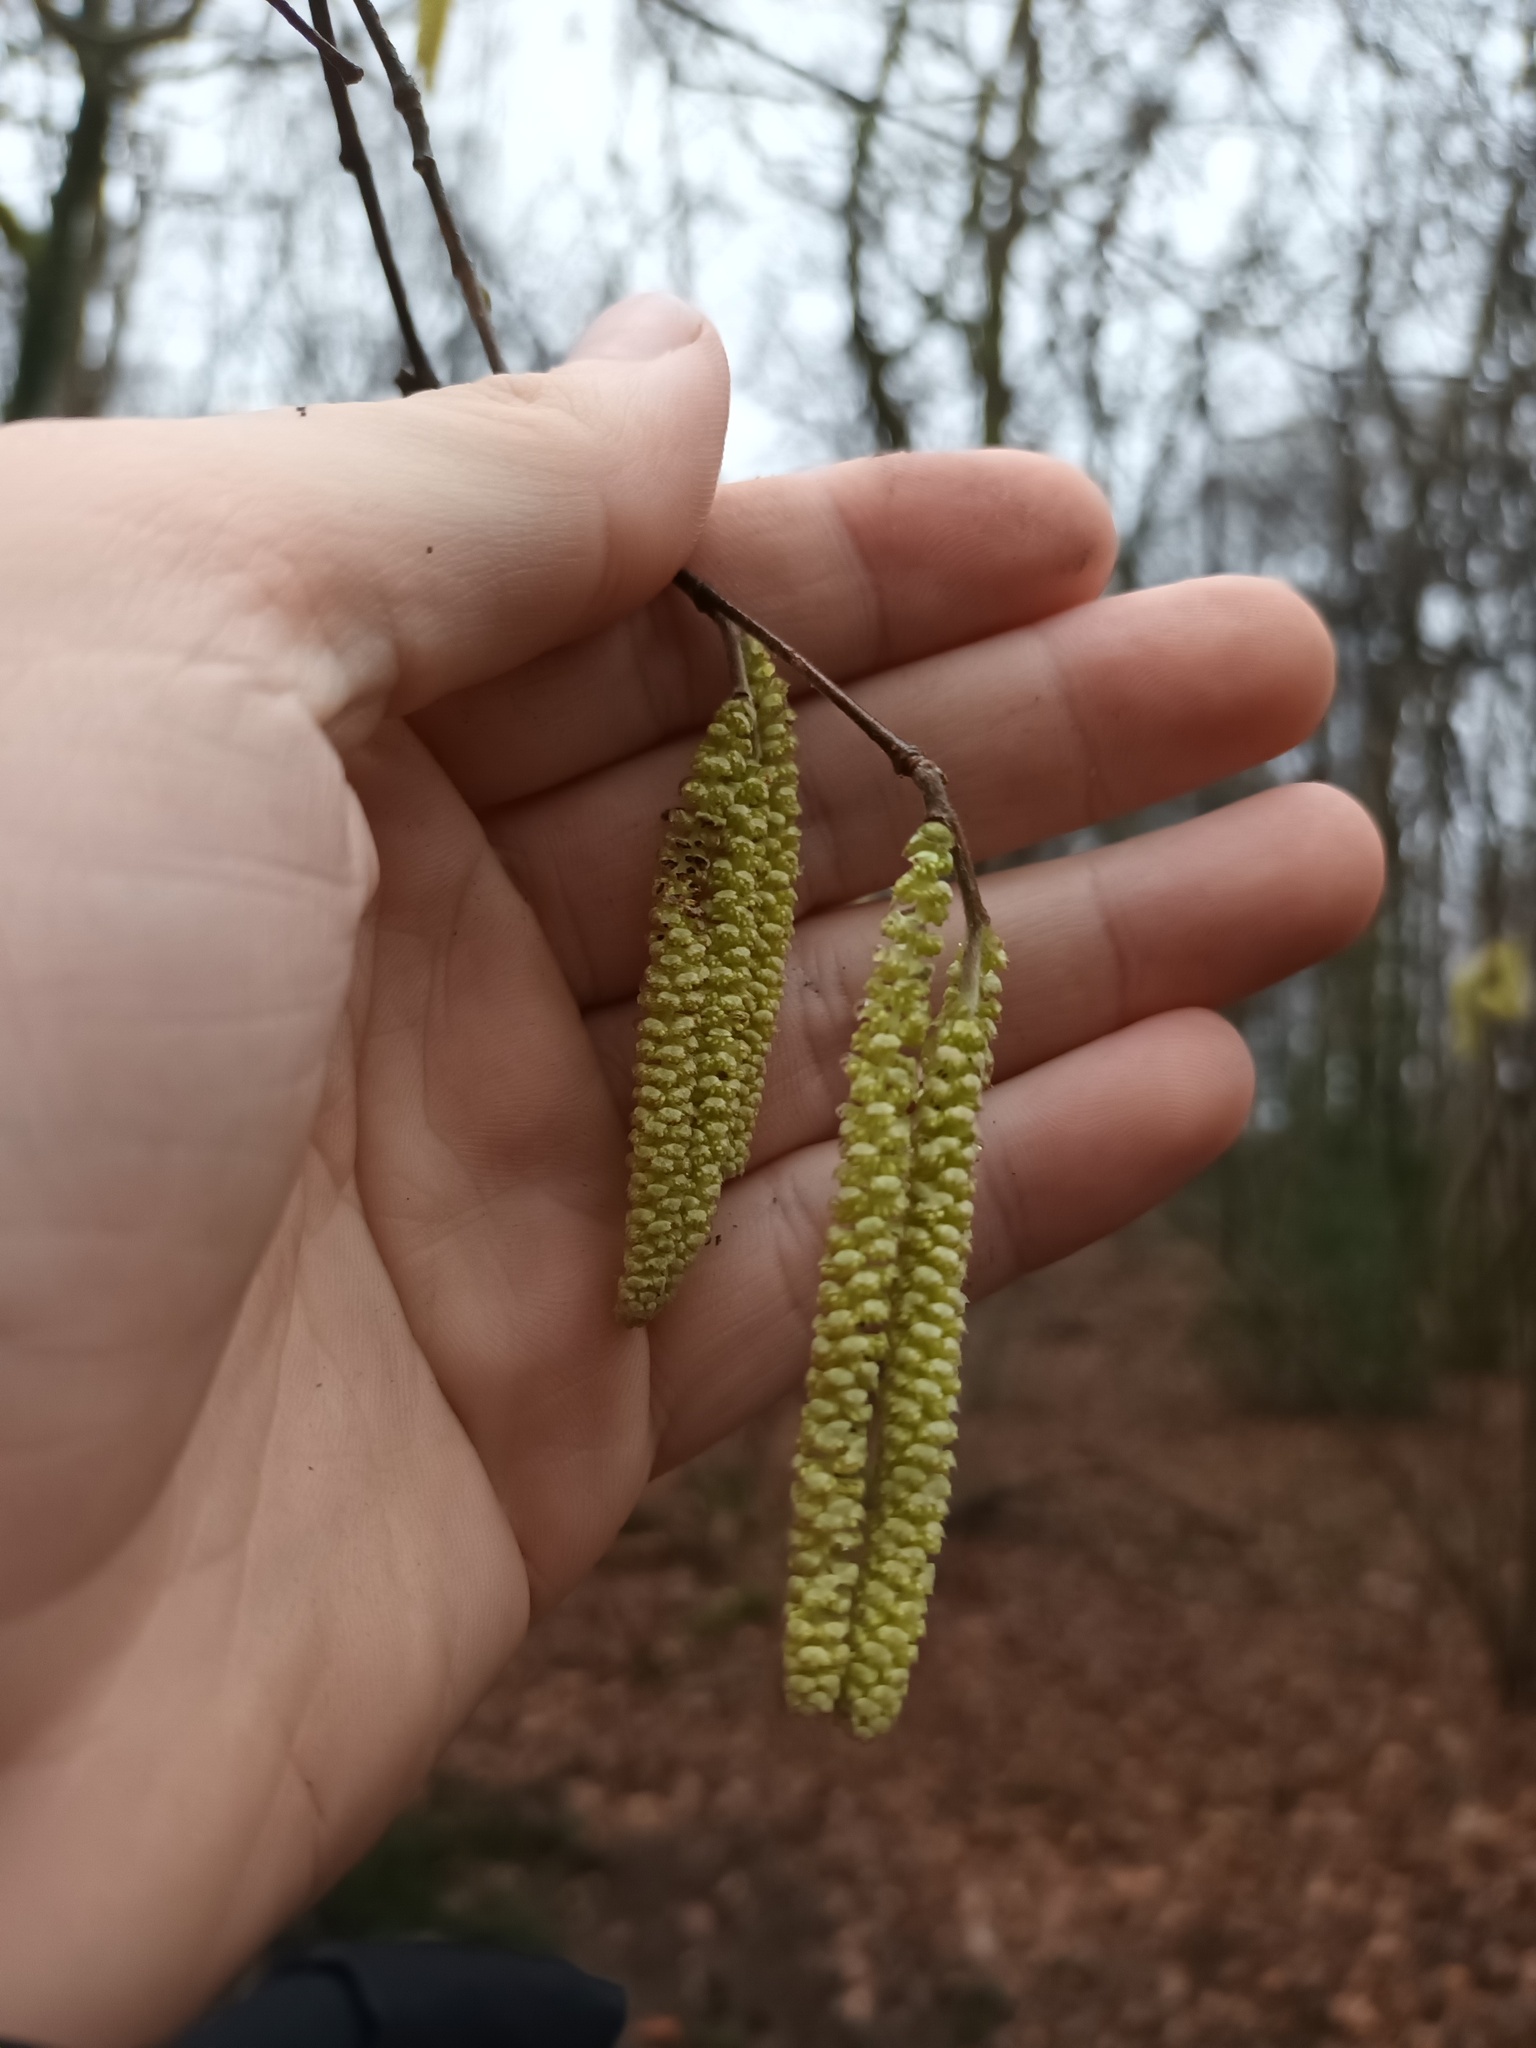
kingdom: Plantae
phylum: Tracheophyta
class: Magnoliopsida
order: Fagales
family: Betulaceae
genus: Corylus
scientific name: Corylus avellana
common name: European hazel
